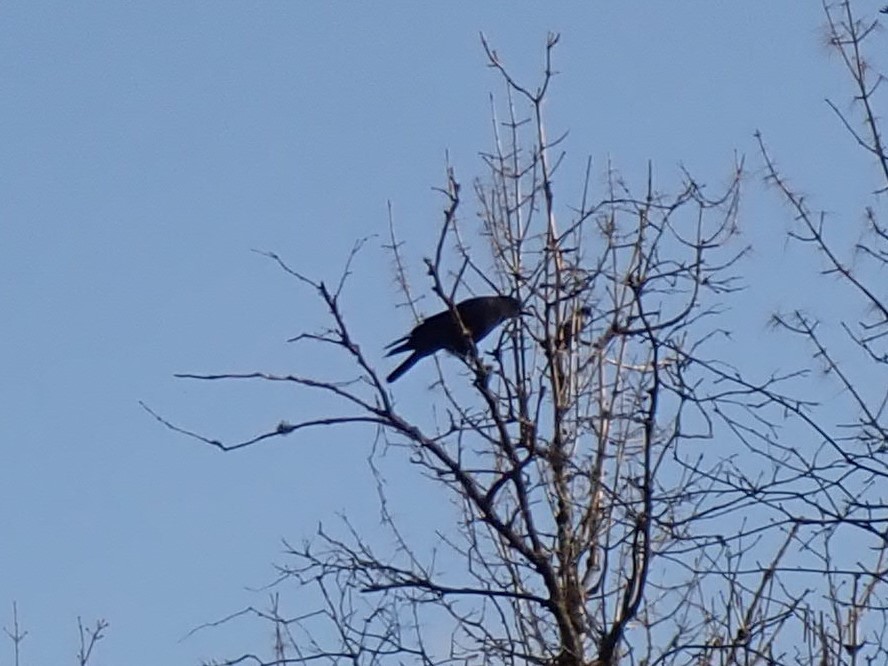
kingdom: Animalia
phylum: Chordata
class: Aves
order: Passeriformes
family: Corvidae
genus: Corvus
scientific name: Corvus brachyrhynchos
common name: American crow
